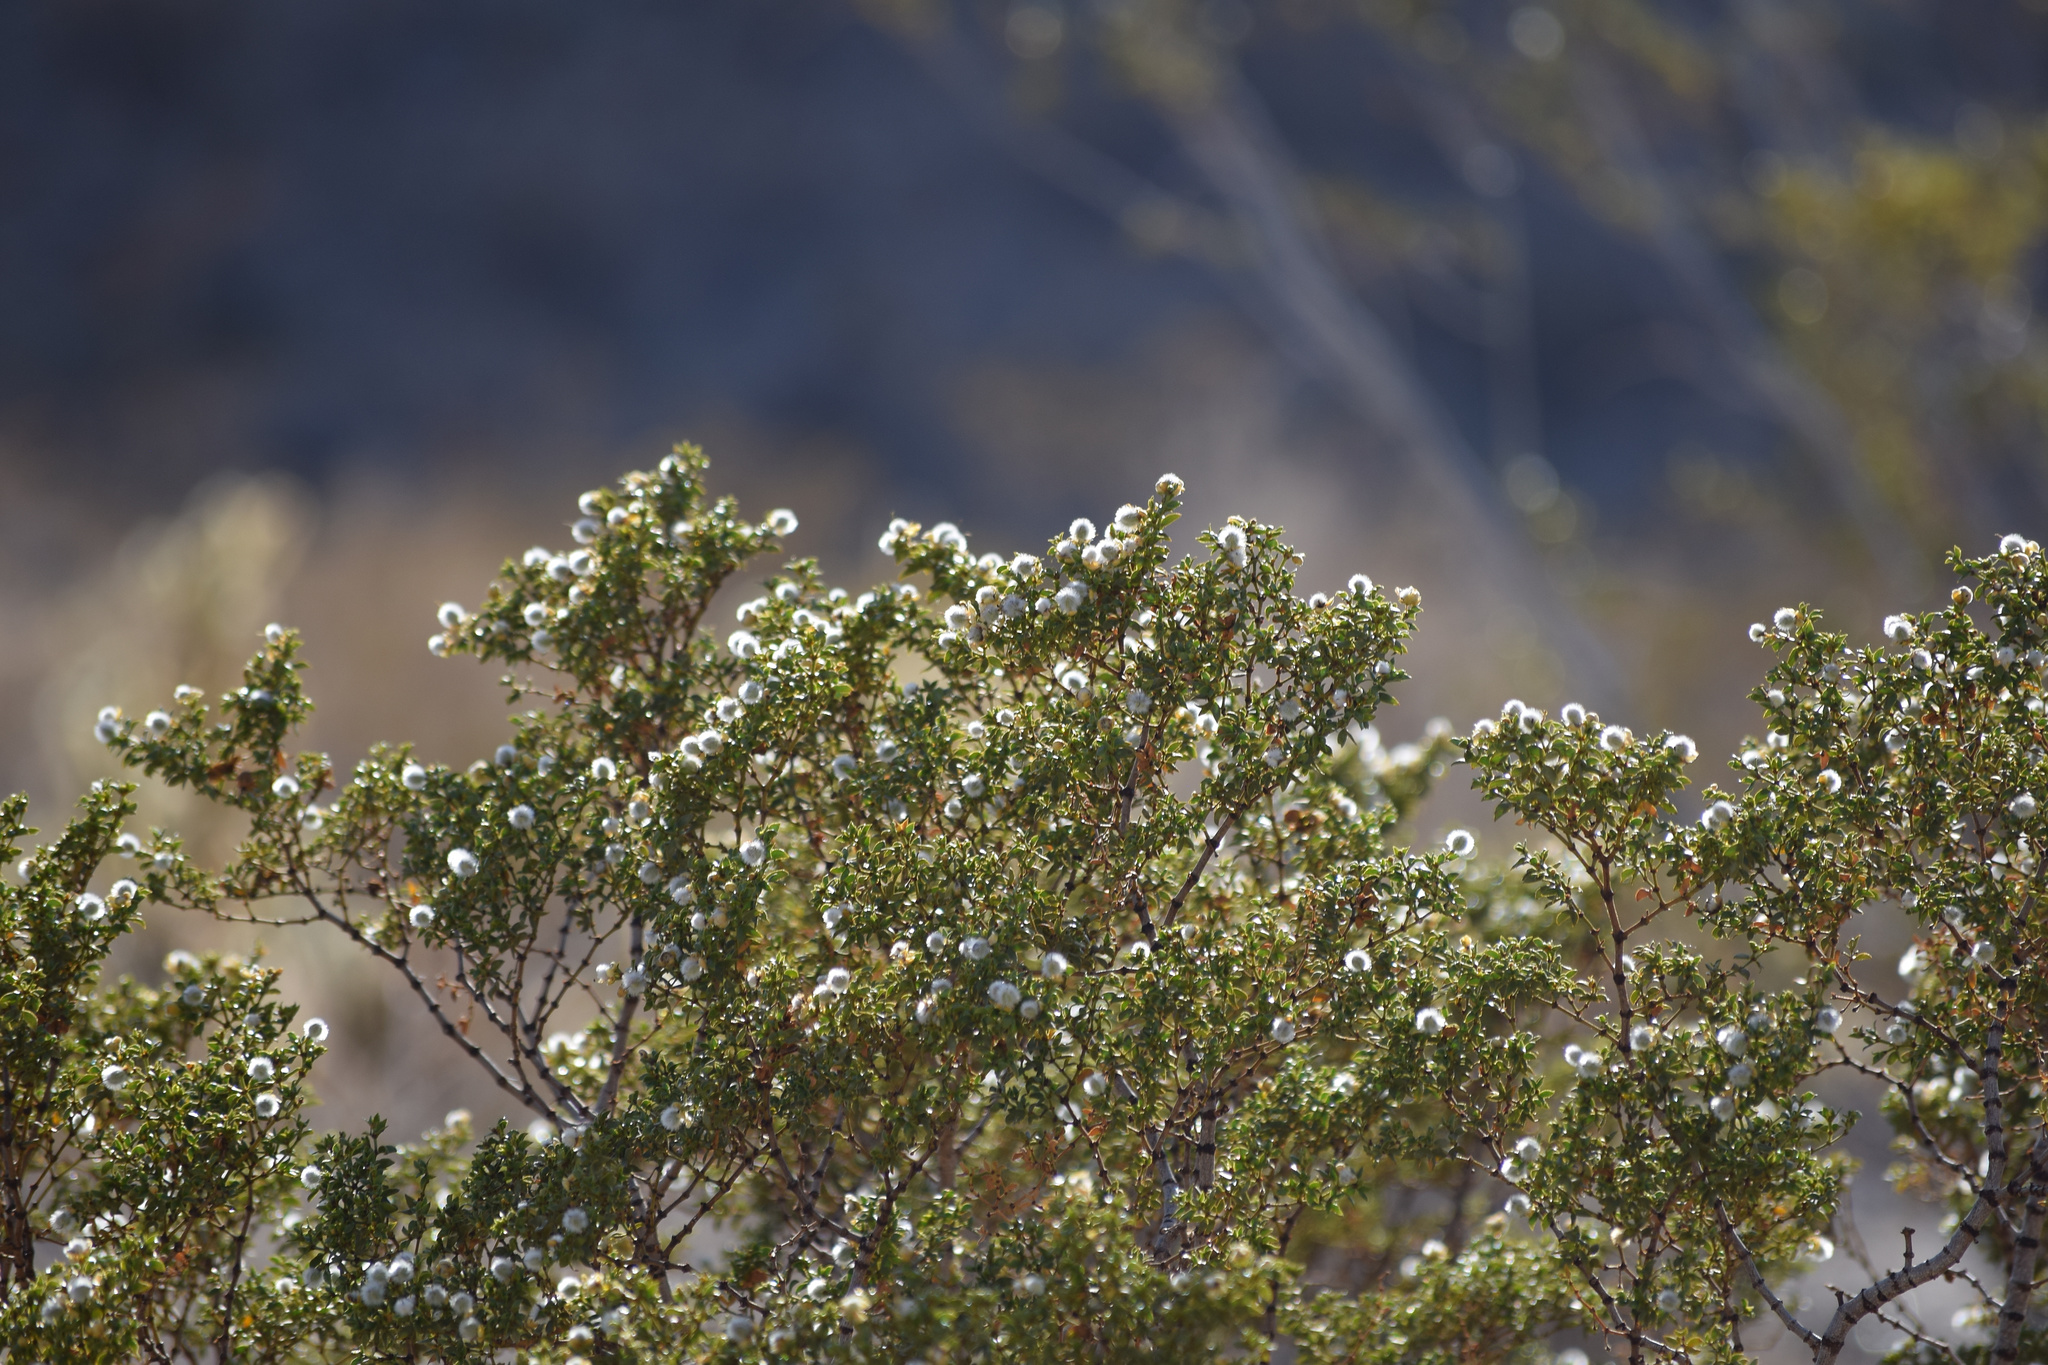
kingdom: Plantae
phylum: Tracheophyta
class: Magnoliopsida
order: Zygophyllales
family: Zygophyllaceae
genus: Larrea
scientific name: Larrea tridentata
